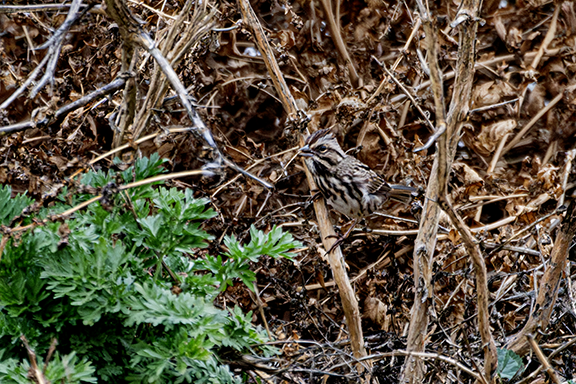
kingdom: Animalia
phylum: Chordata
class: Aves
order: Passeriformes
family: Passerellidae
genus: Melospiza
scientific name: Melospiza melodia
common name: Song sparrow
